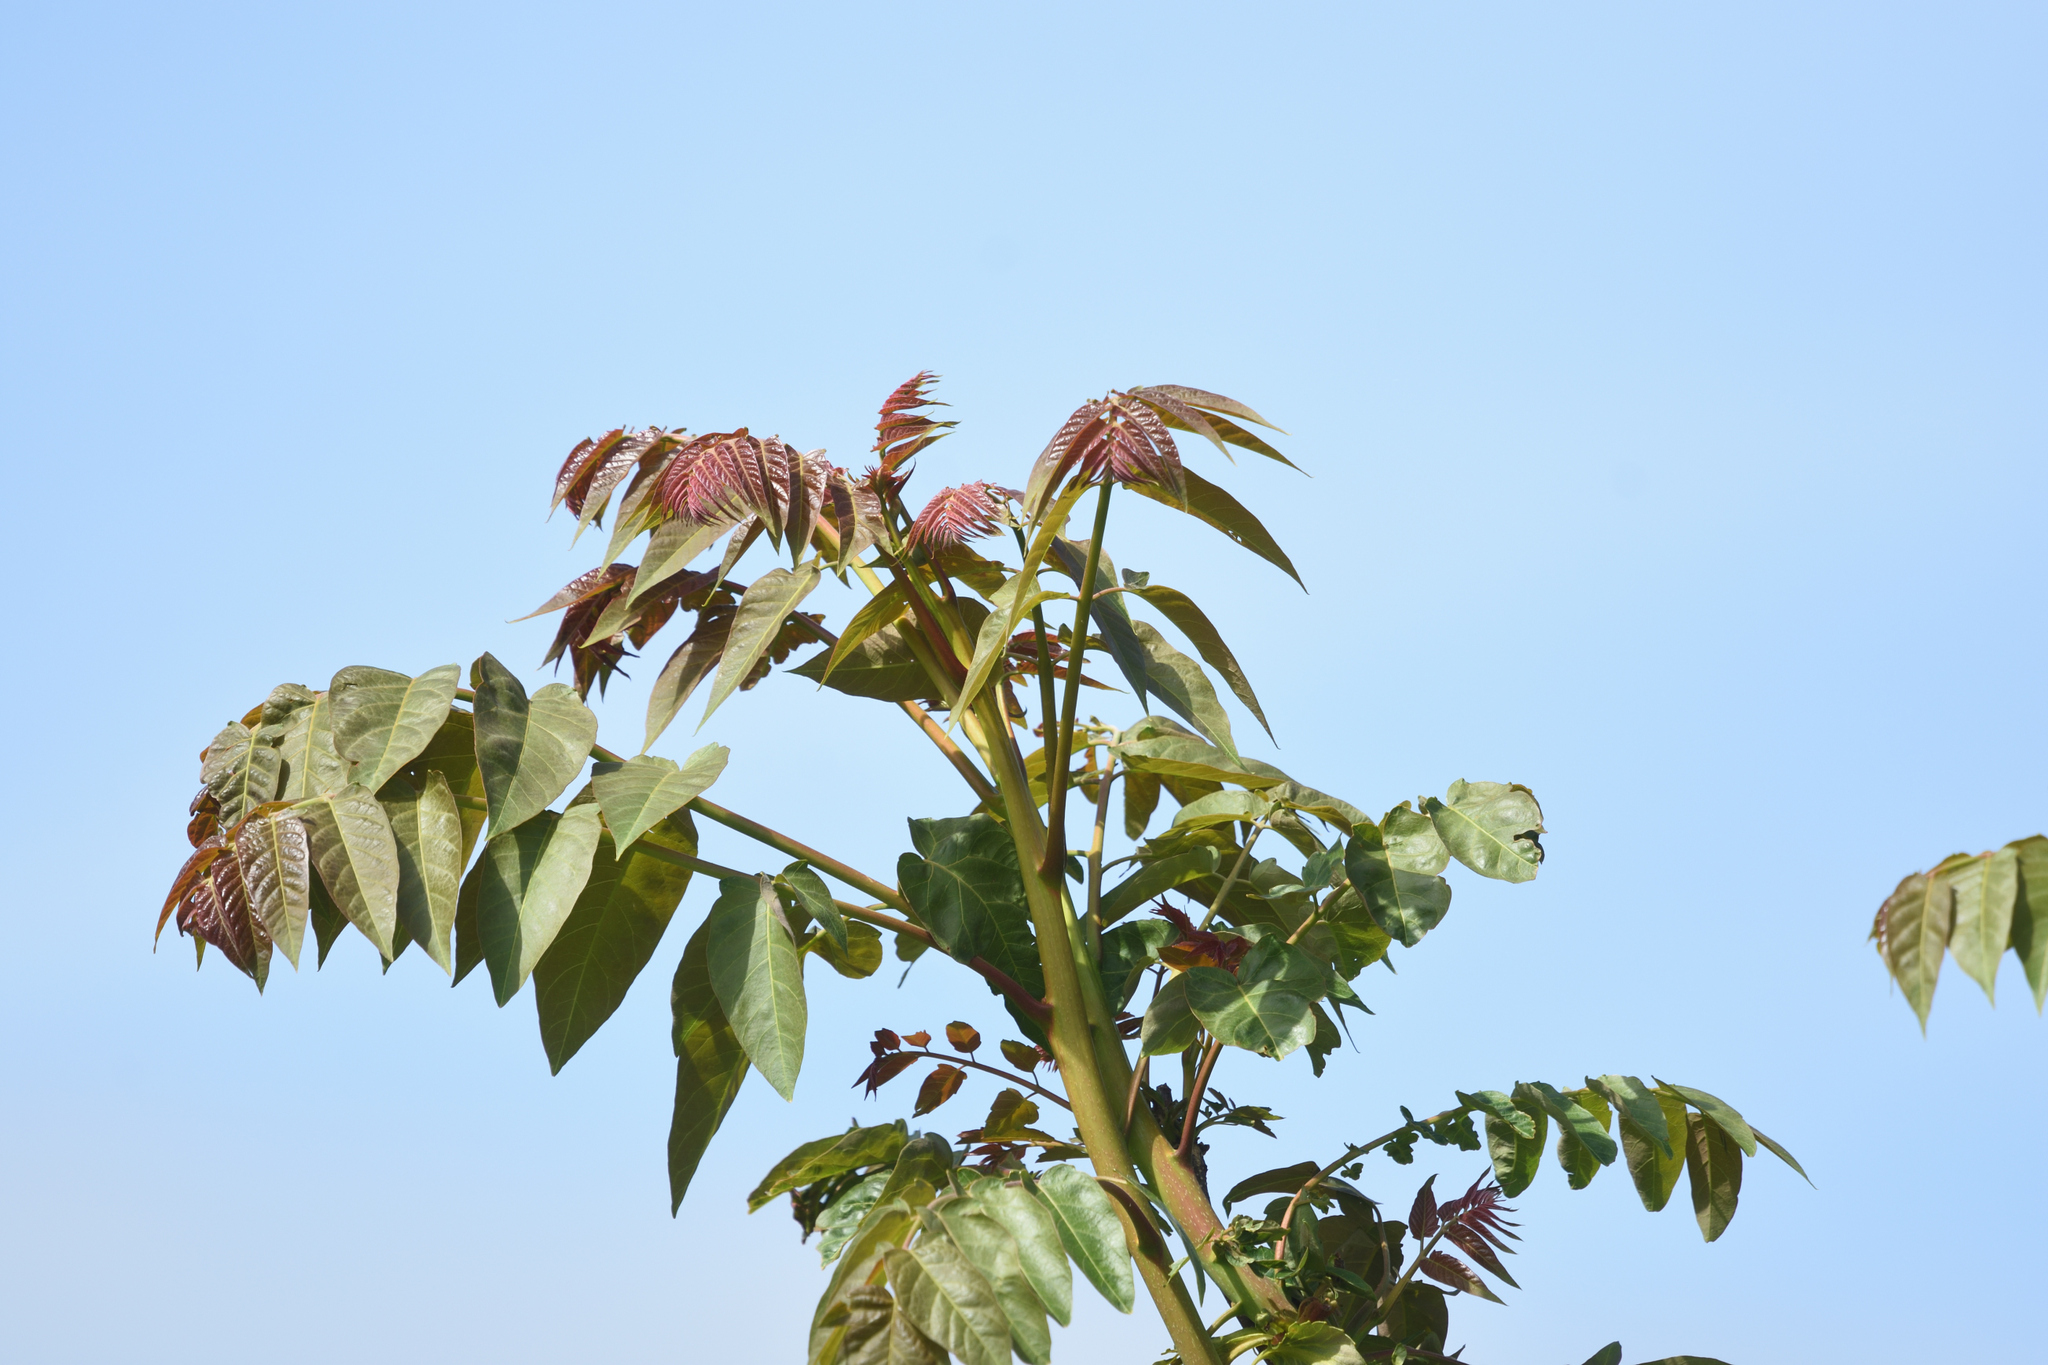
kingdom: Plantae
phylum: Tracheophyta
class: Magnoliopsida
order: Sapindales
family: Simaroubaceae
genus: Ailanthus
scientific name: Ailanthus altissima
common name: Tree-of-heaven
